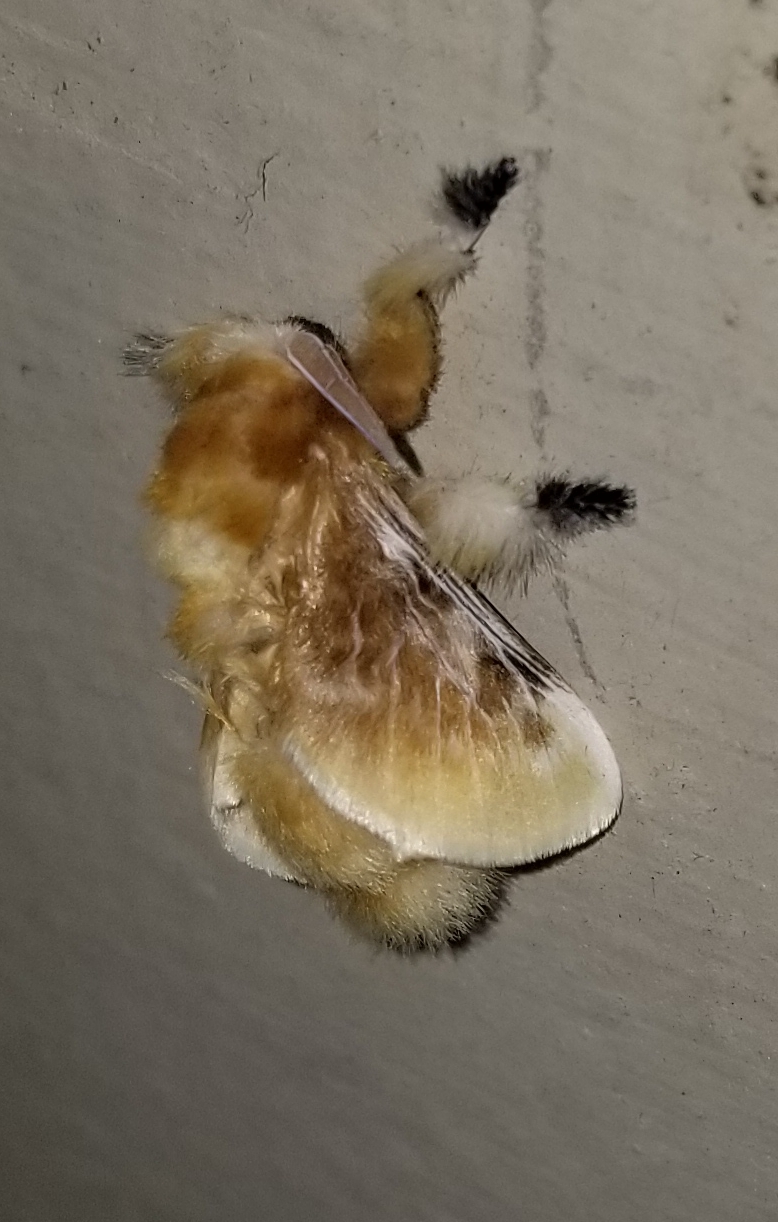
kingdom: Animalia
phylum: Arthropoda
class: Insecta
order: Lepidoptera
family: Megalopygidae
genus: Megalopyge
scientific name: Megalopyge opercularis
